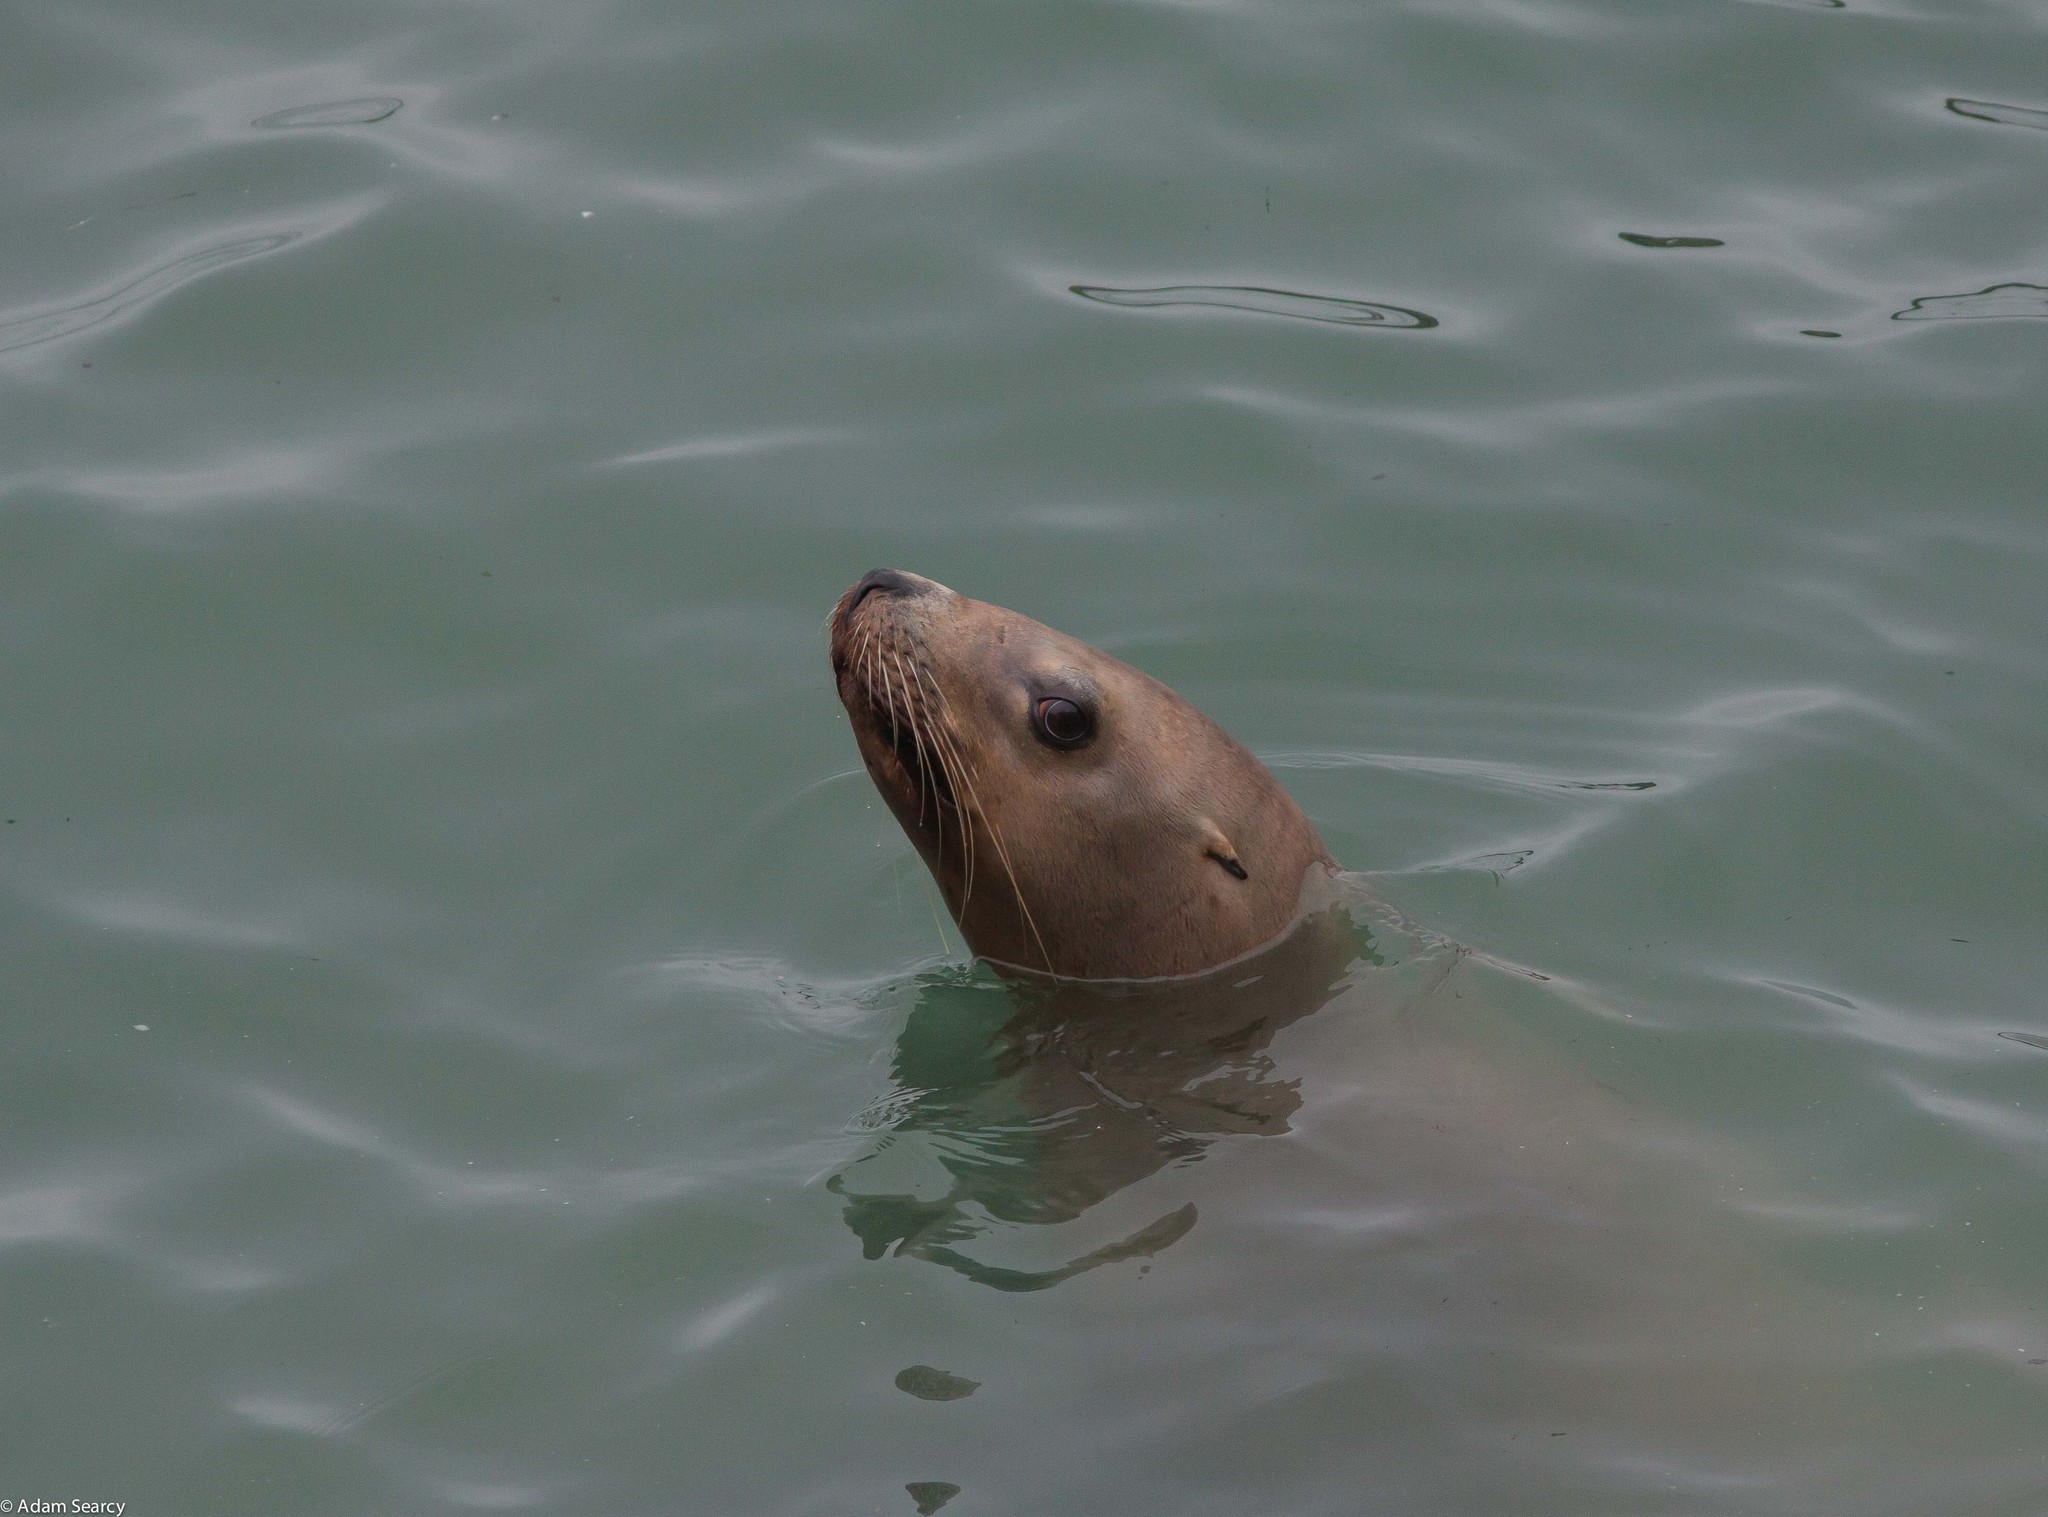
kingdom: Animalia
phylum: Chordata
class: Mammalia
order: Carnivora
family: Otariidae
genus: Eumetopias
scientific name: Eumetopias jubatus
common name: Steller sea lion
